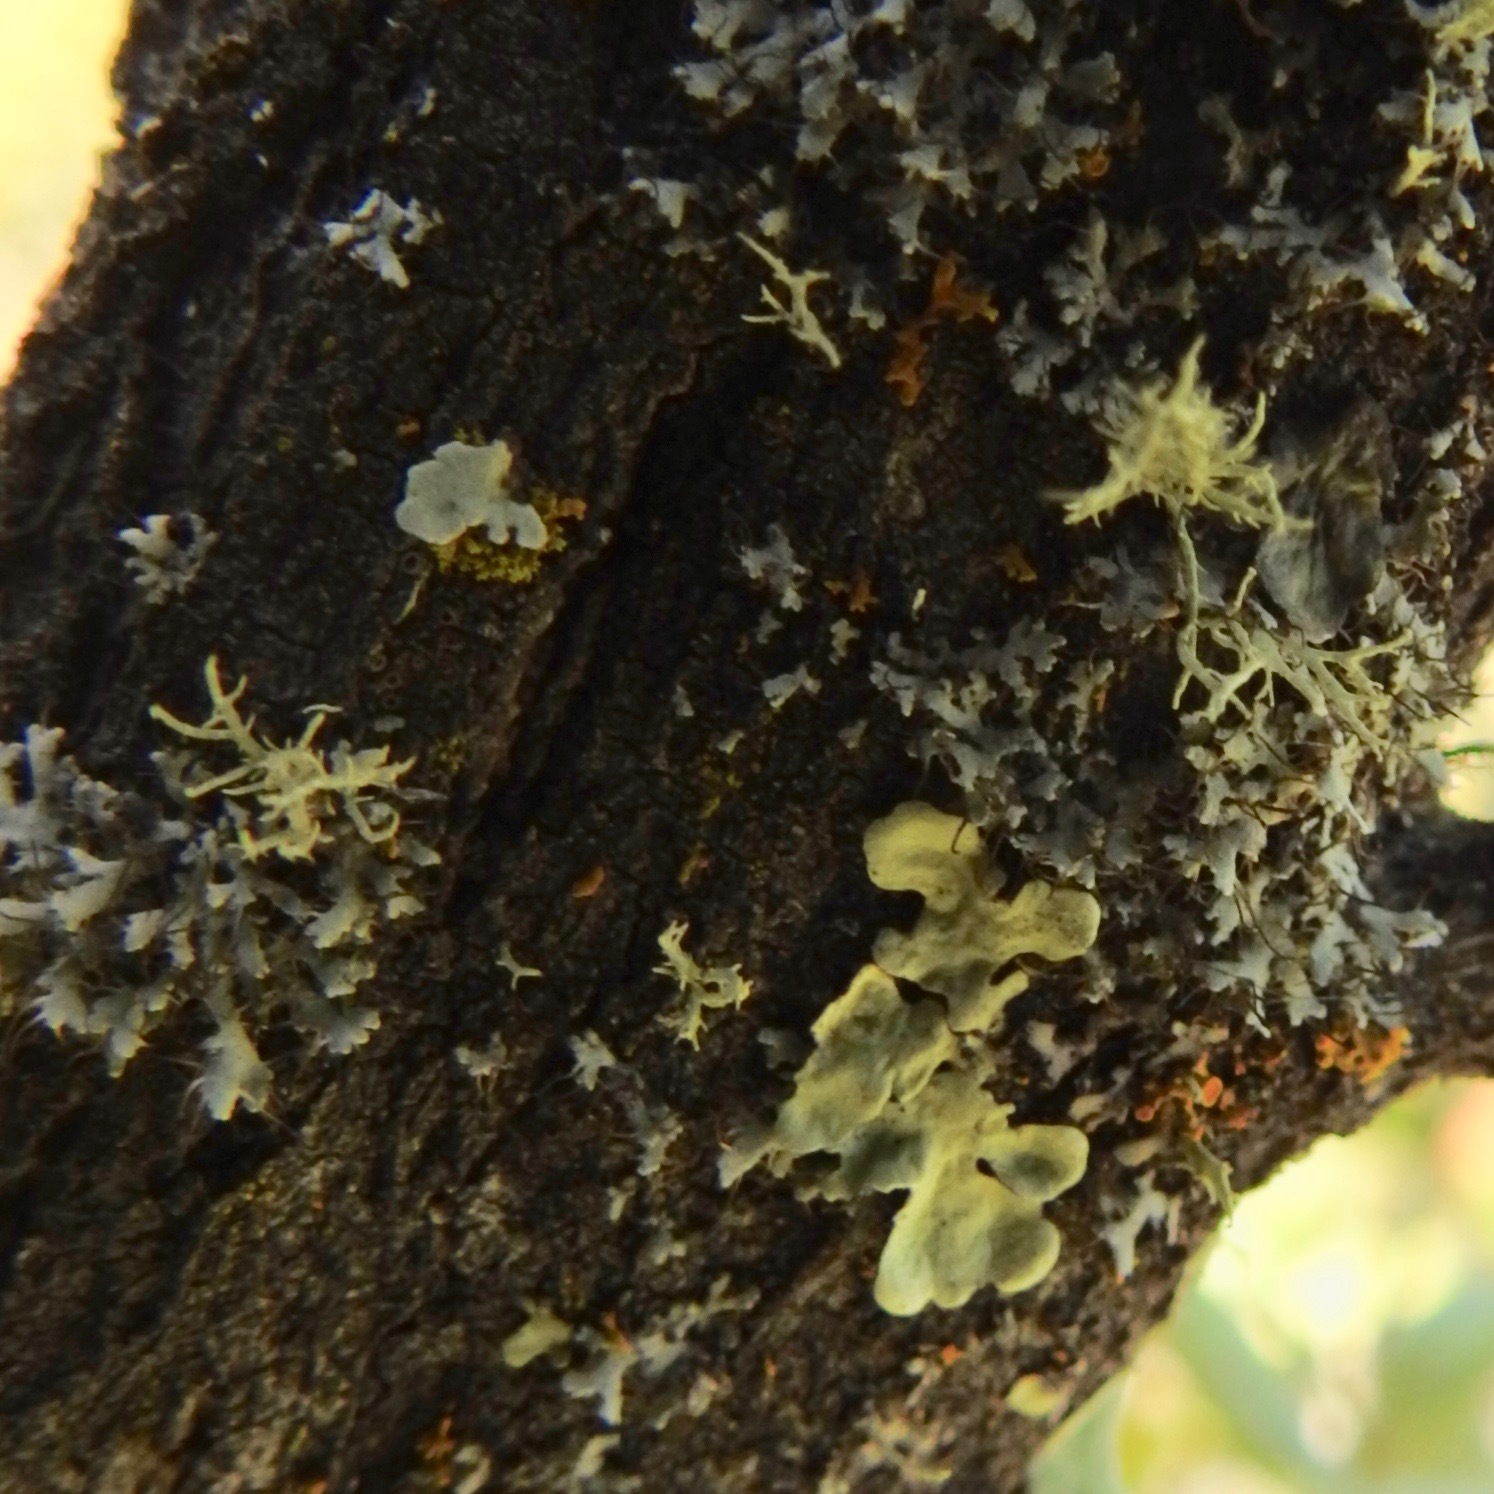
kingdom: Fungi
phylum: Ascomycota
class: Lecanoromycetes
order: Caliciales
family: Physciaceae
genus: Physcia
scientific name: Physcia adscendens
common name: Hooded rosette lichen
